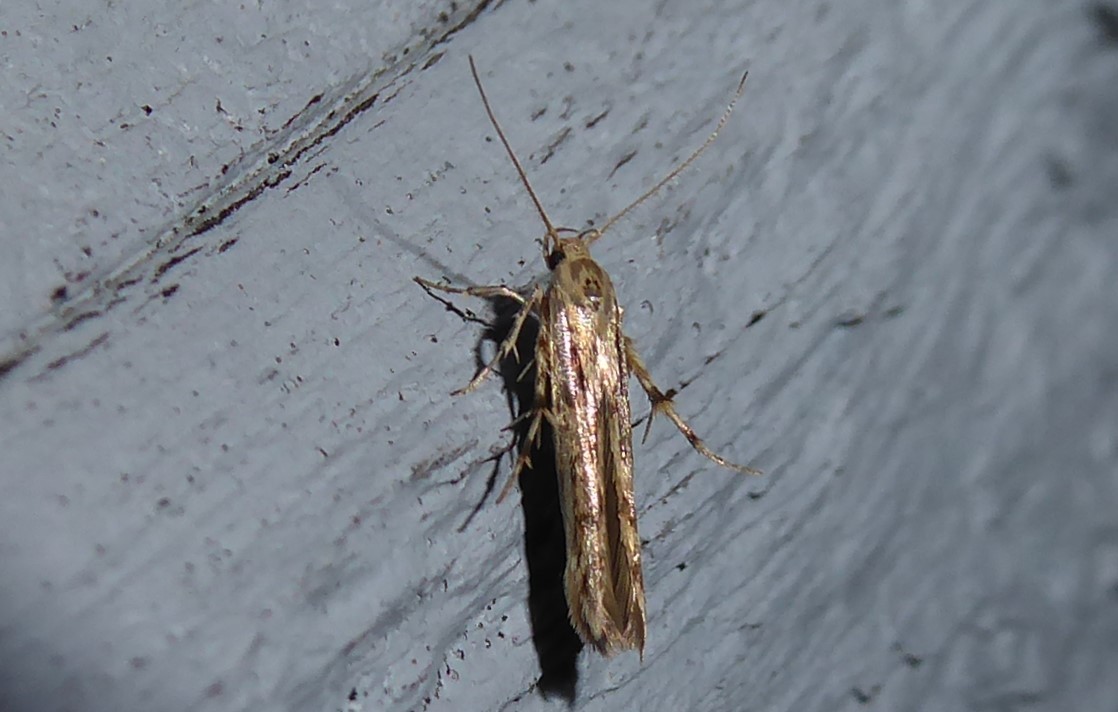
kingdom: Animalia
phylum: Arthropoda
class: Insecta
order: Lepidoptera
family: Stathmopodidae
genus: Stathmopoda
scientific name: Stathmopoda plumbiflua
